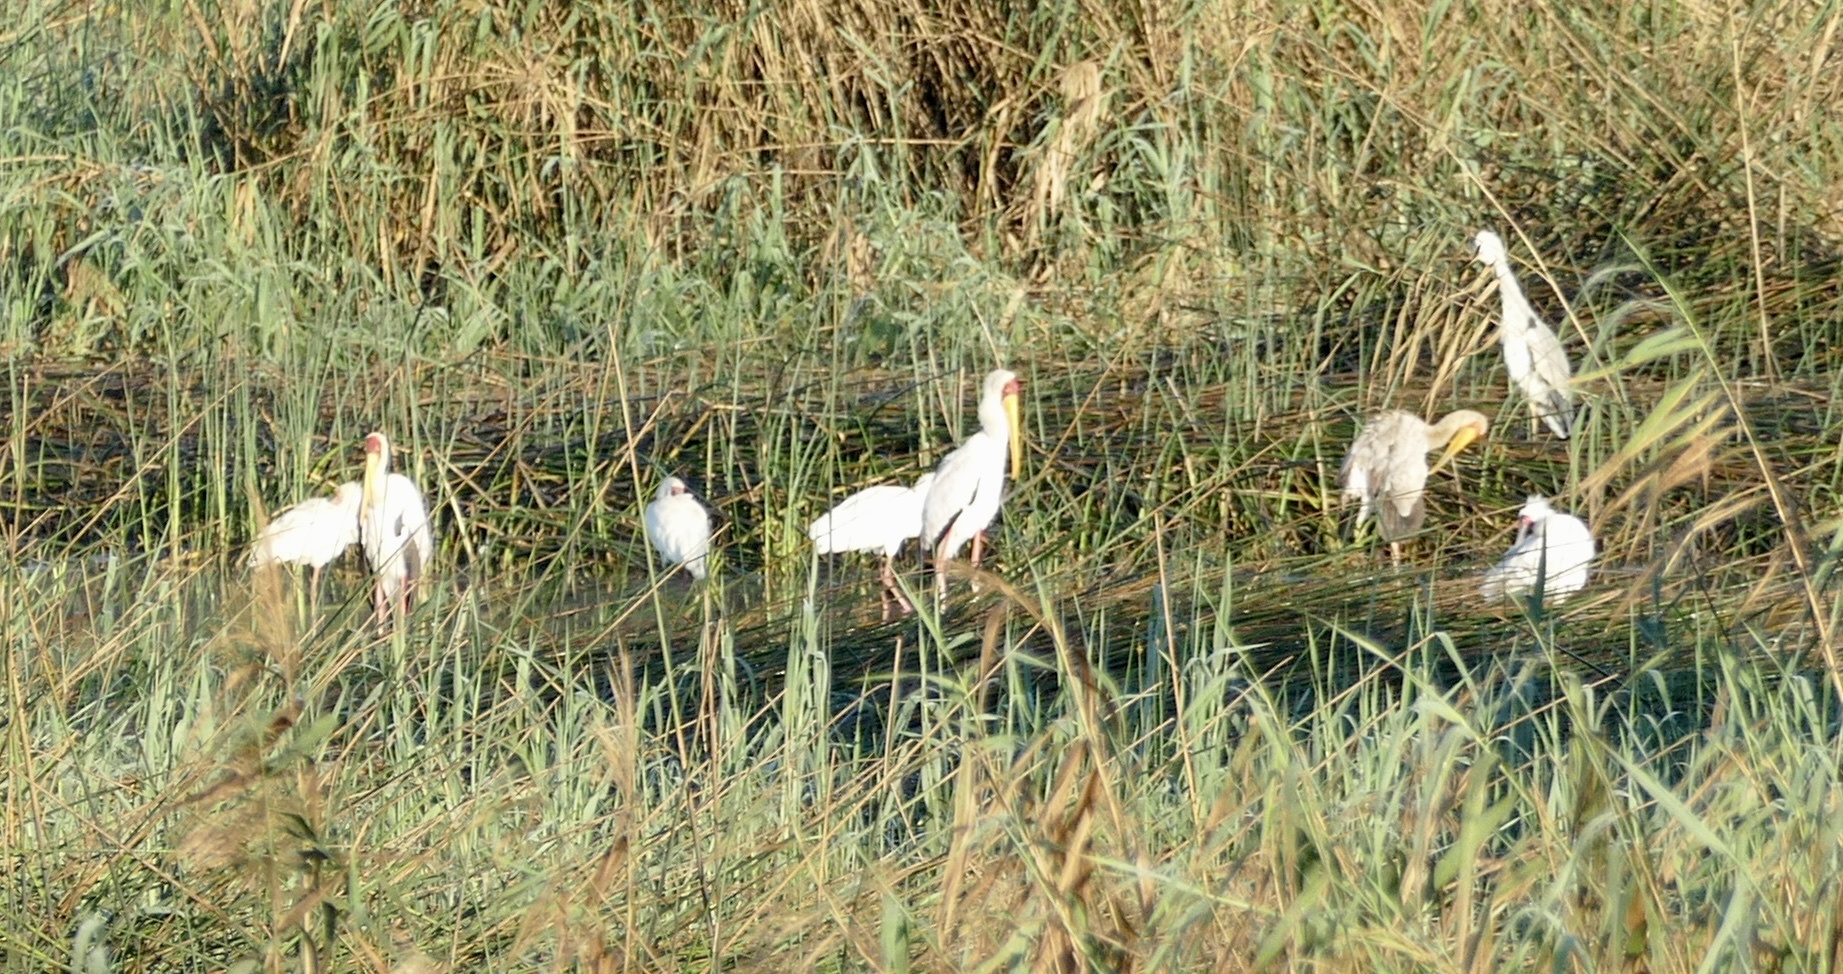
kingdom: Animalia
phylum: Chordata
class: Aves
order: Ciconiiformes
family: Ciconiidae
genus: Mycteria
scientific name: Mycteria ibis
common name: Yellow-billed stork
